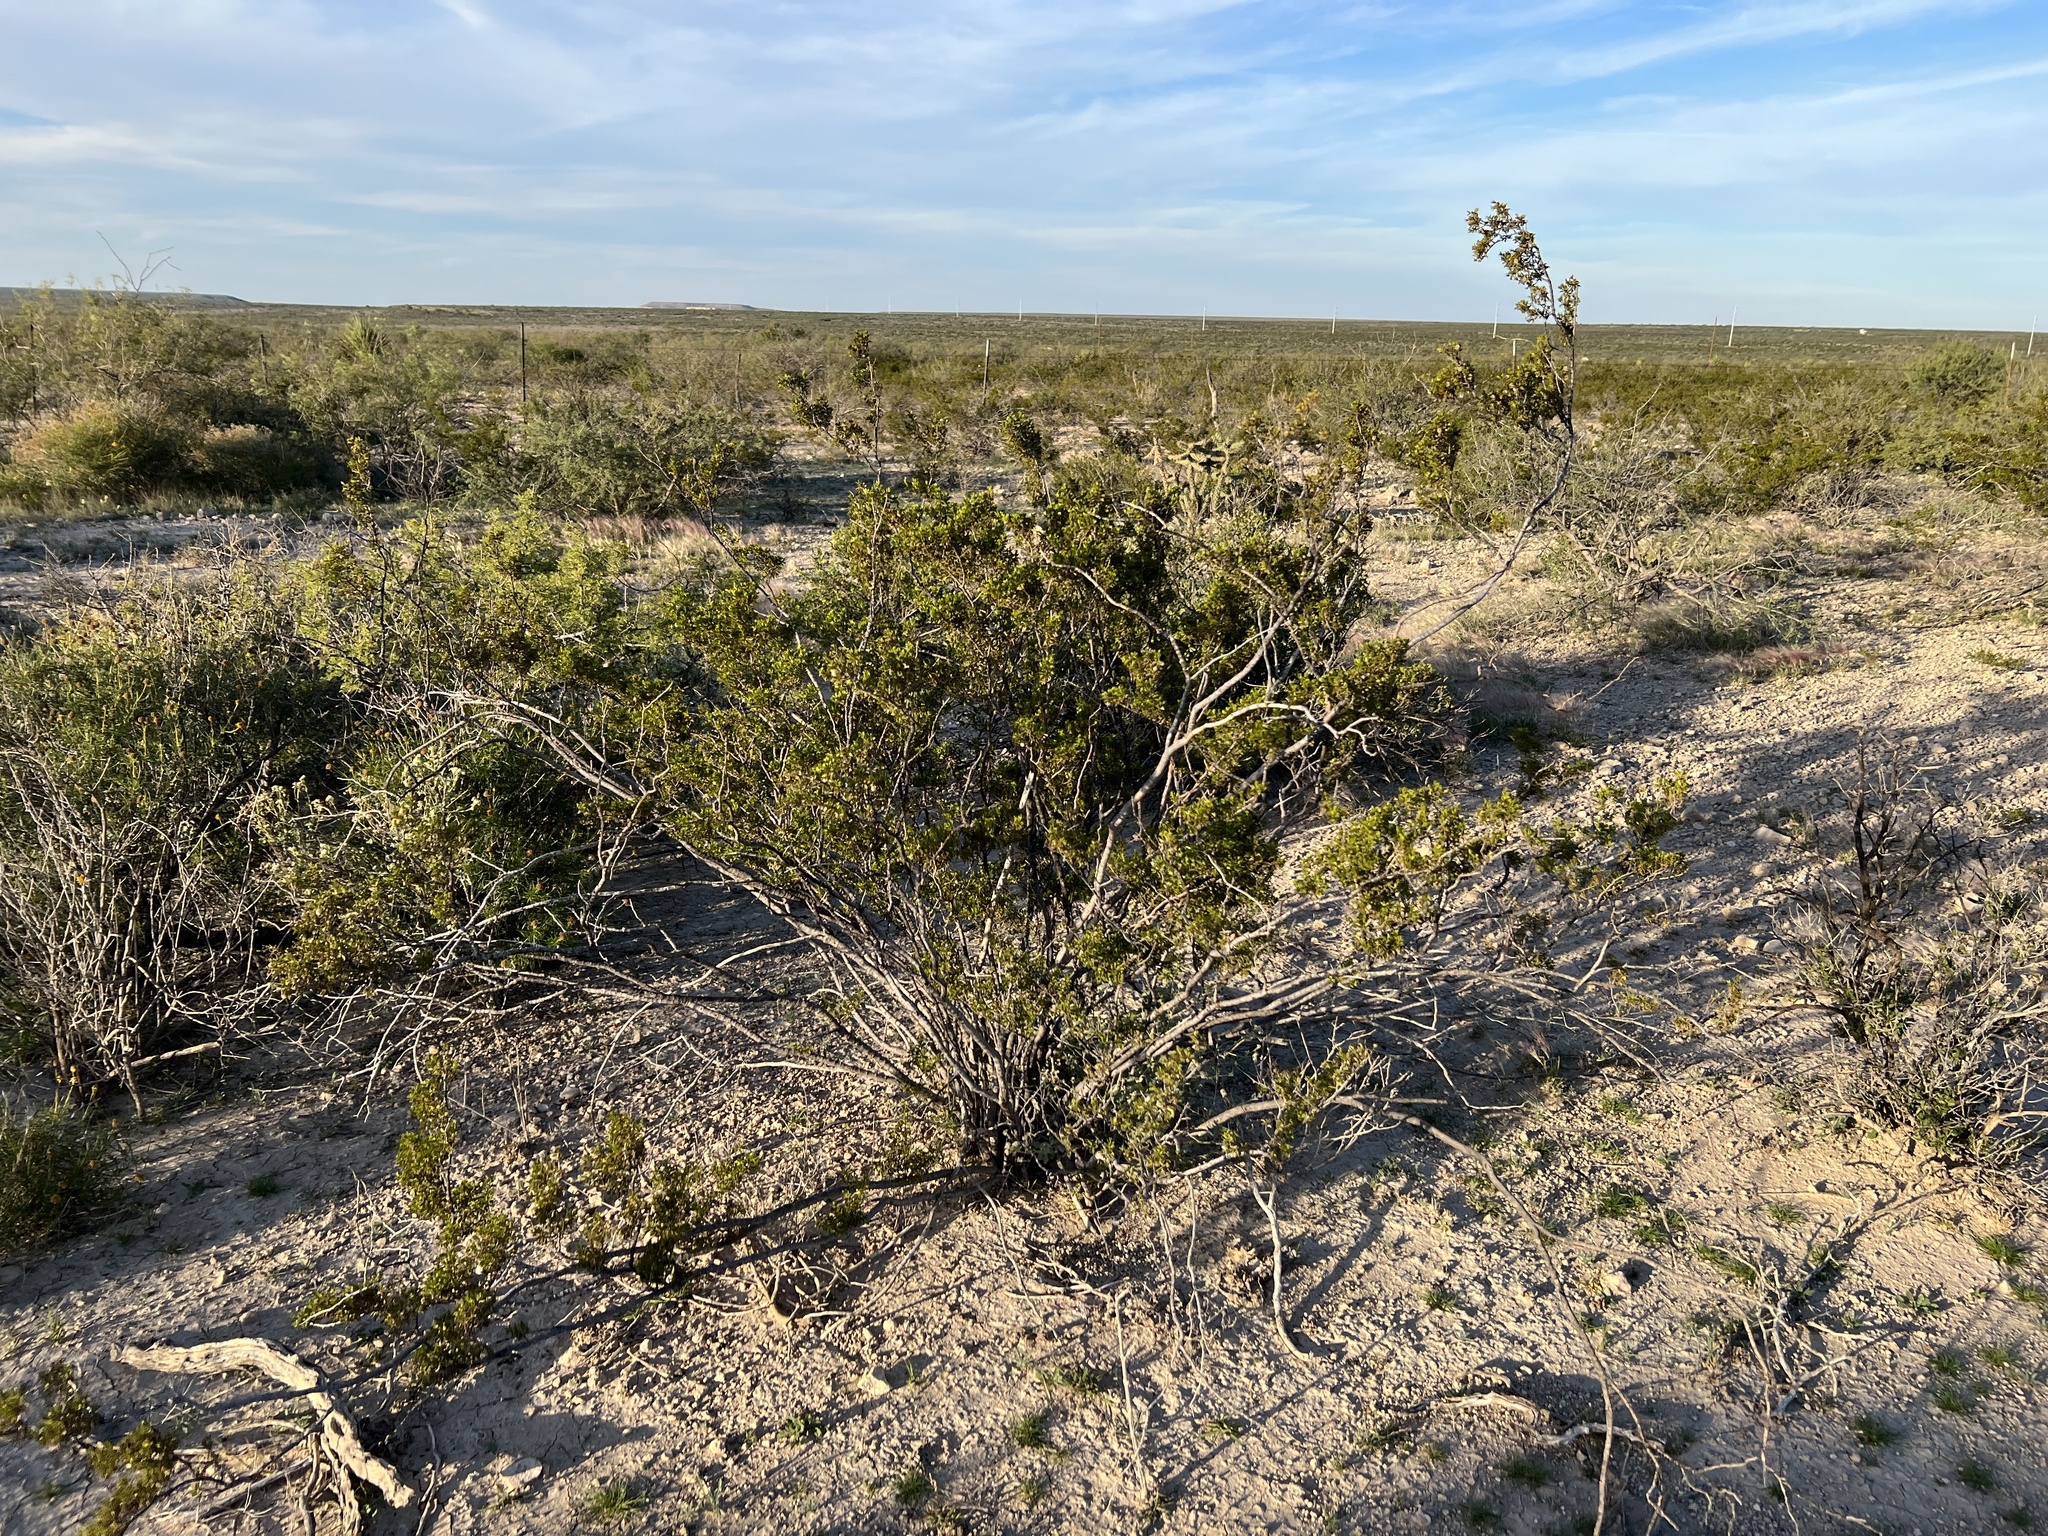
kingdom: Plantae
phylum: Tracheophyta
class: Magnoliopsida
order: Zygophyllales
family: Zygophyllaceae
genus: Larrea
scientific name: Larrea tridentata
